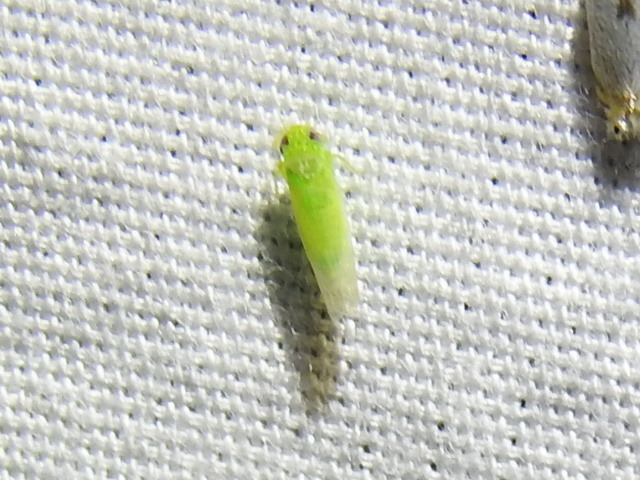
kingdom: Animalia
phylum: Arthropoda
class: Insecta
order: Hemiptera
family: Cicadellidae
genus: Empoasca
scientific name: Empoasca fabae
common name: Potato leafhopper
